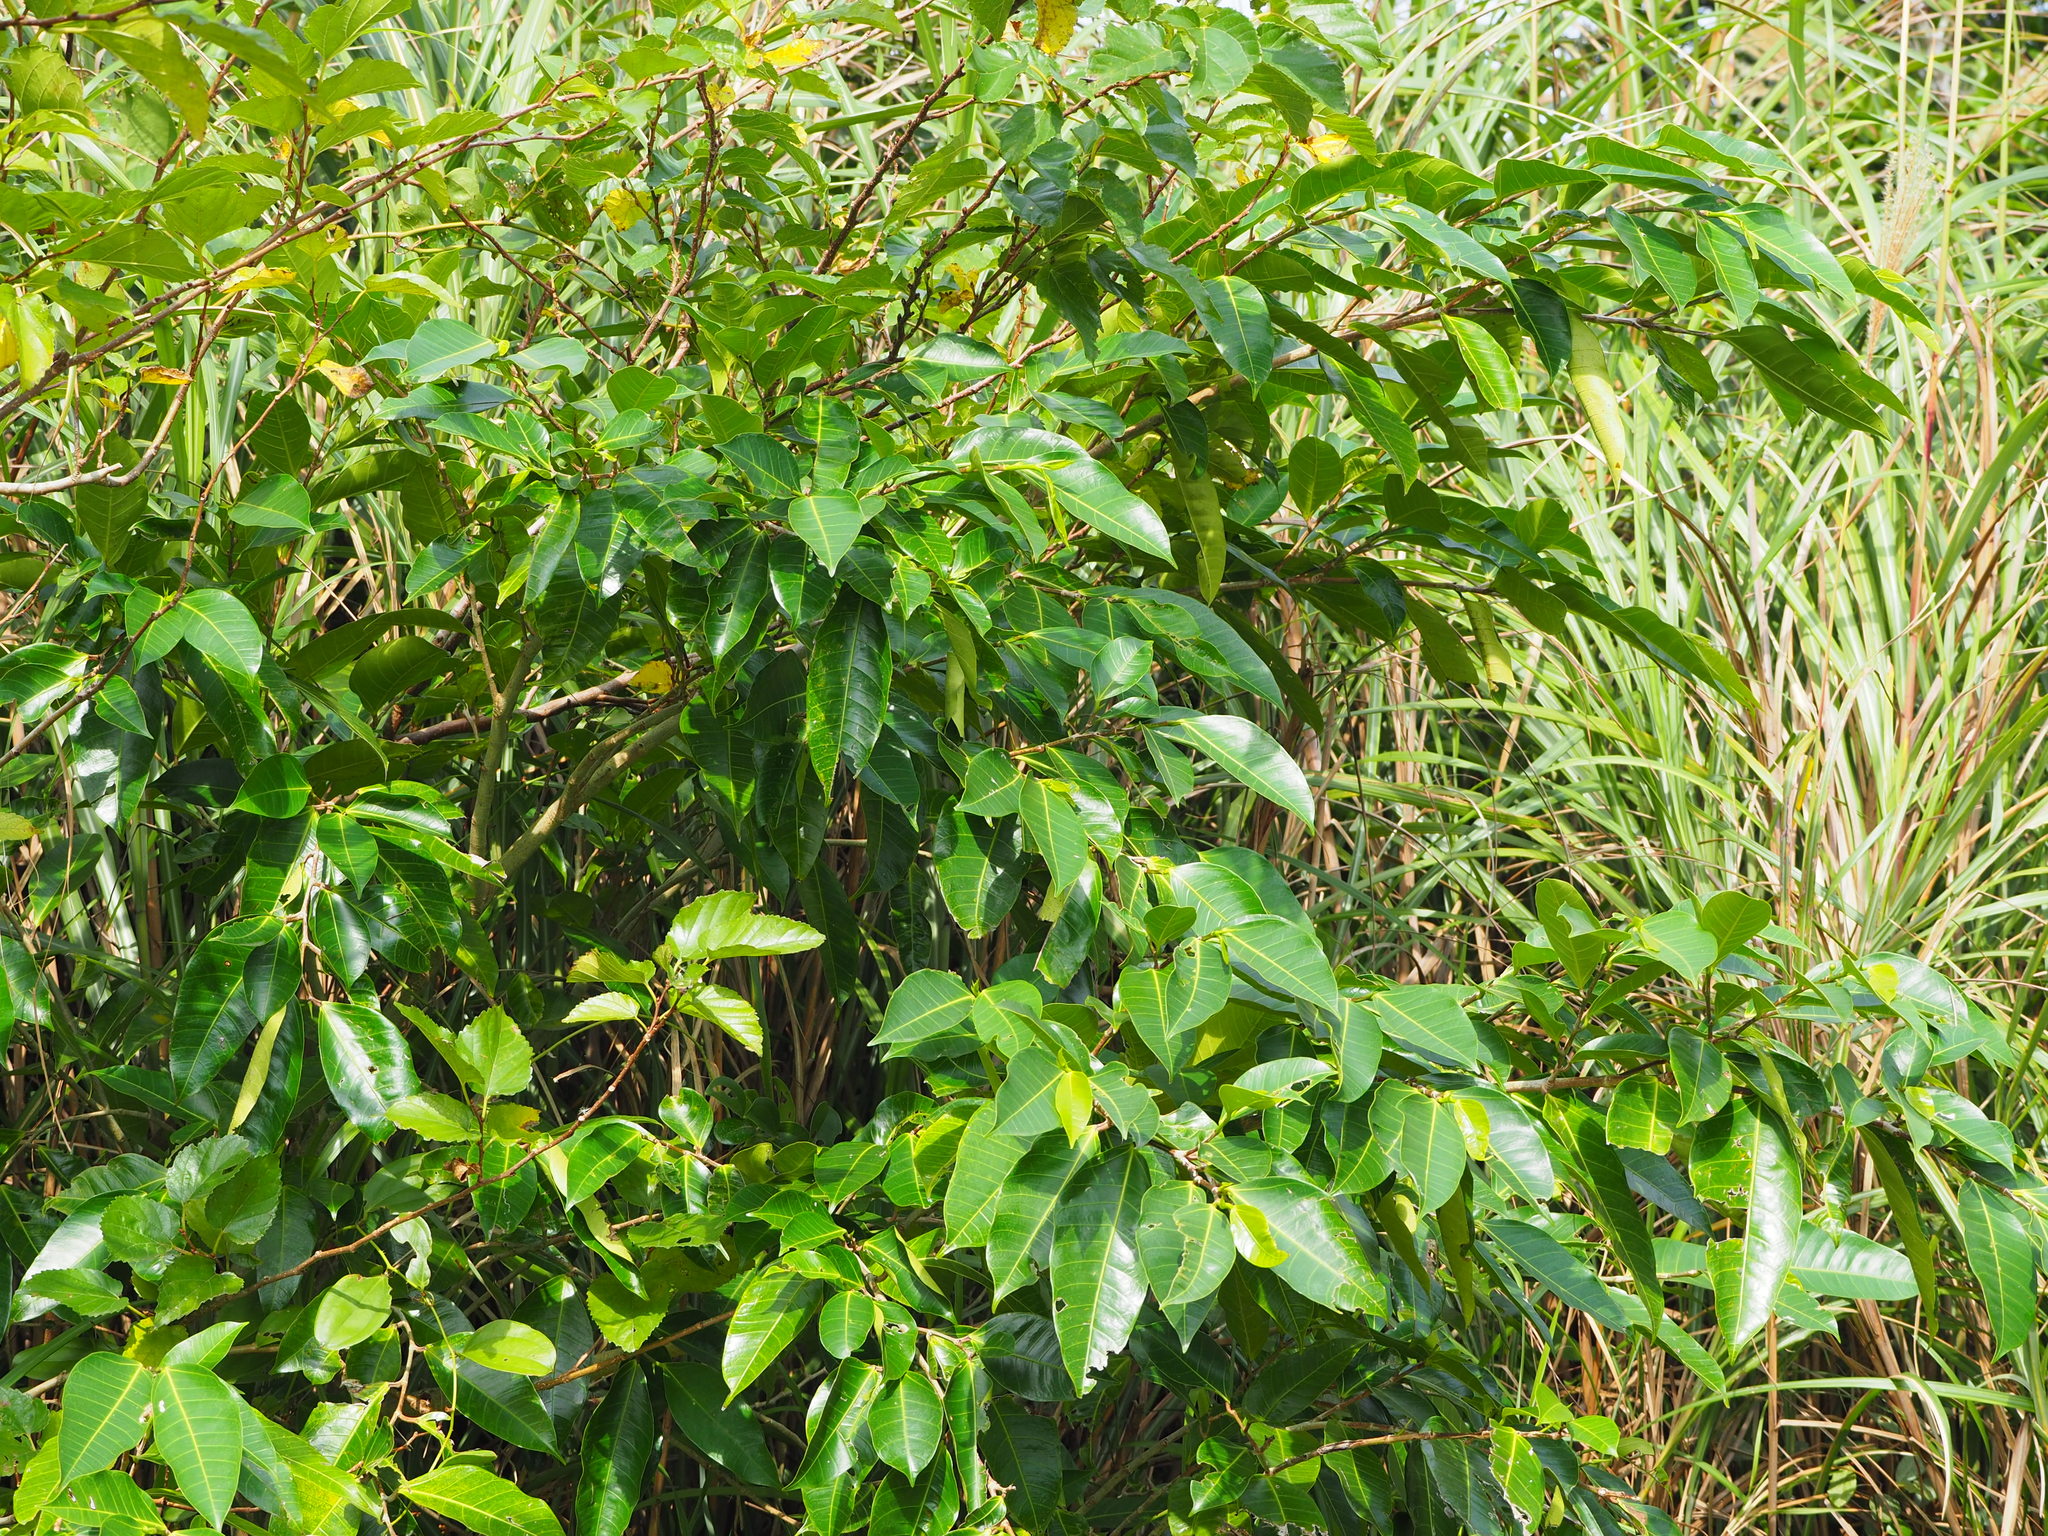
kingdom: Plantae
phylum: Tracheophyta
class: Magnoliopsida
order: Rosales
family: Moraceae
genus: Ficus
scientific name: Ficus virgata
